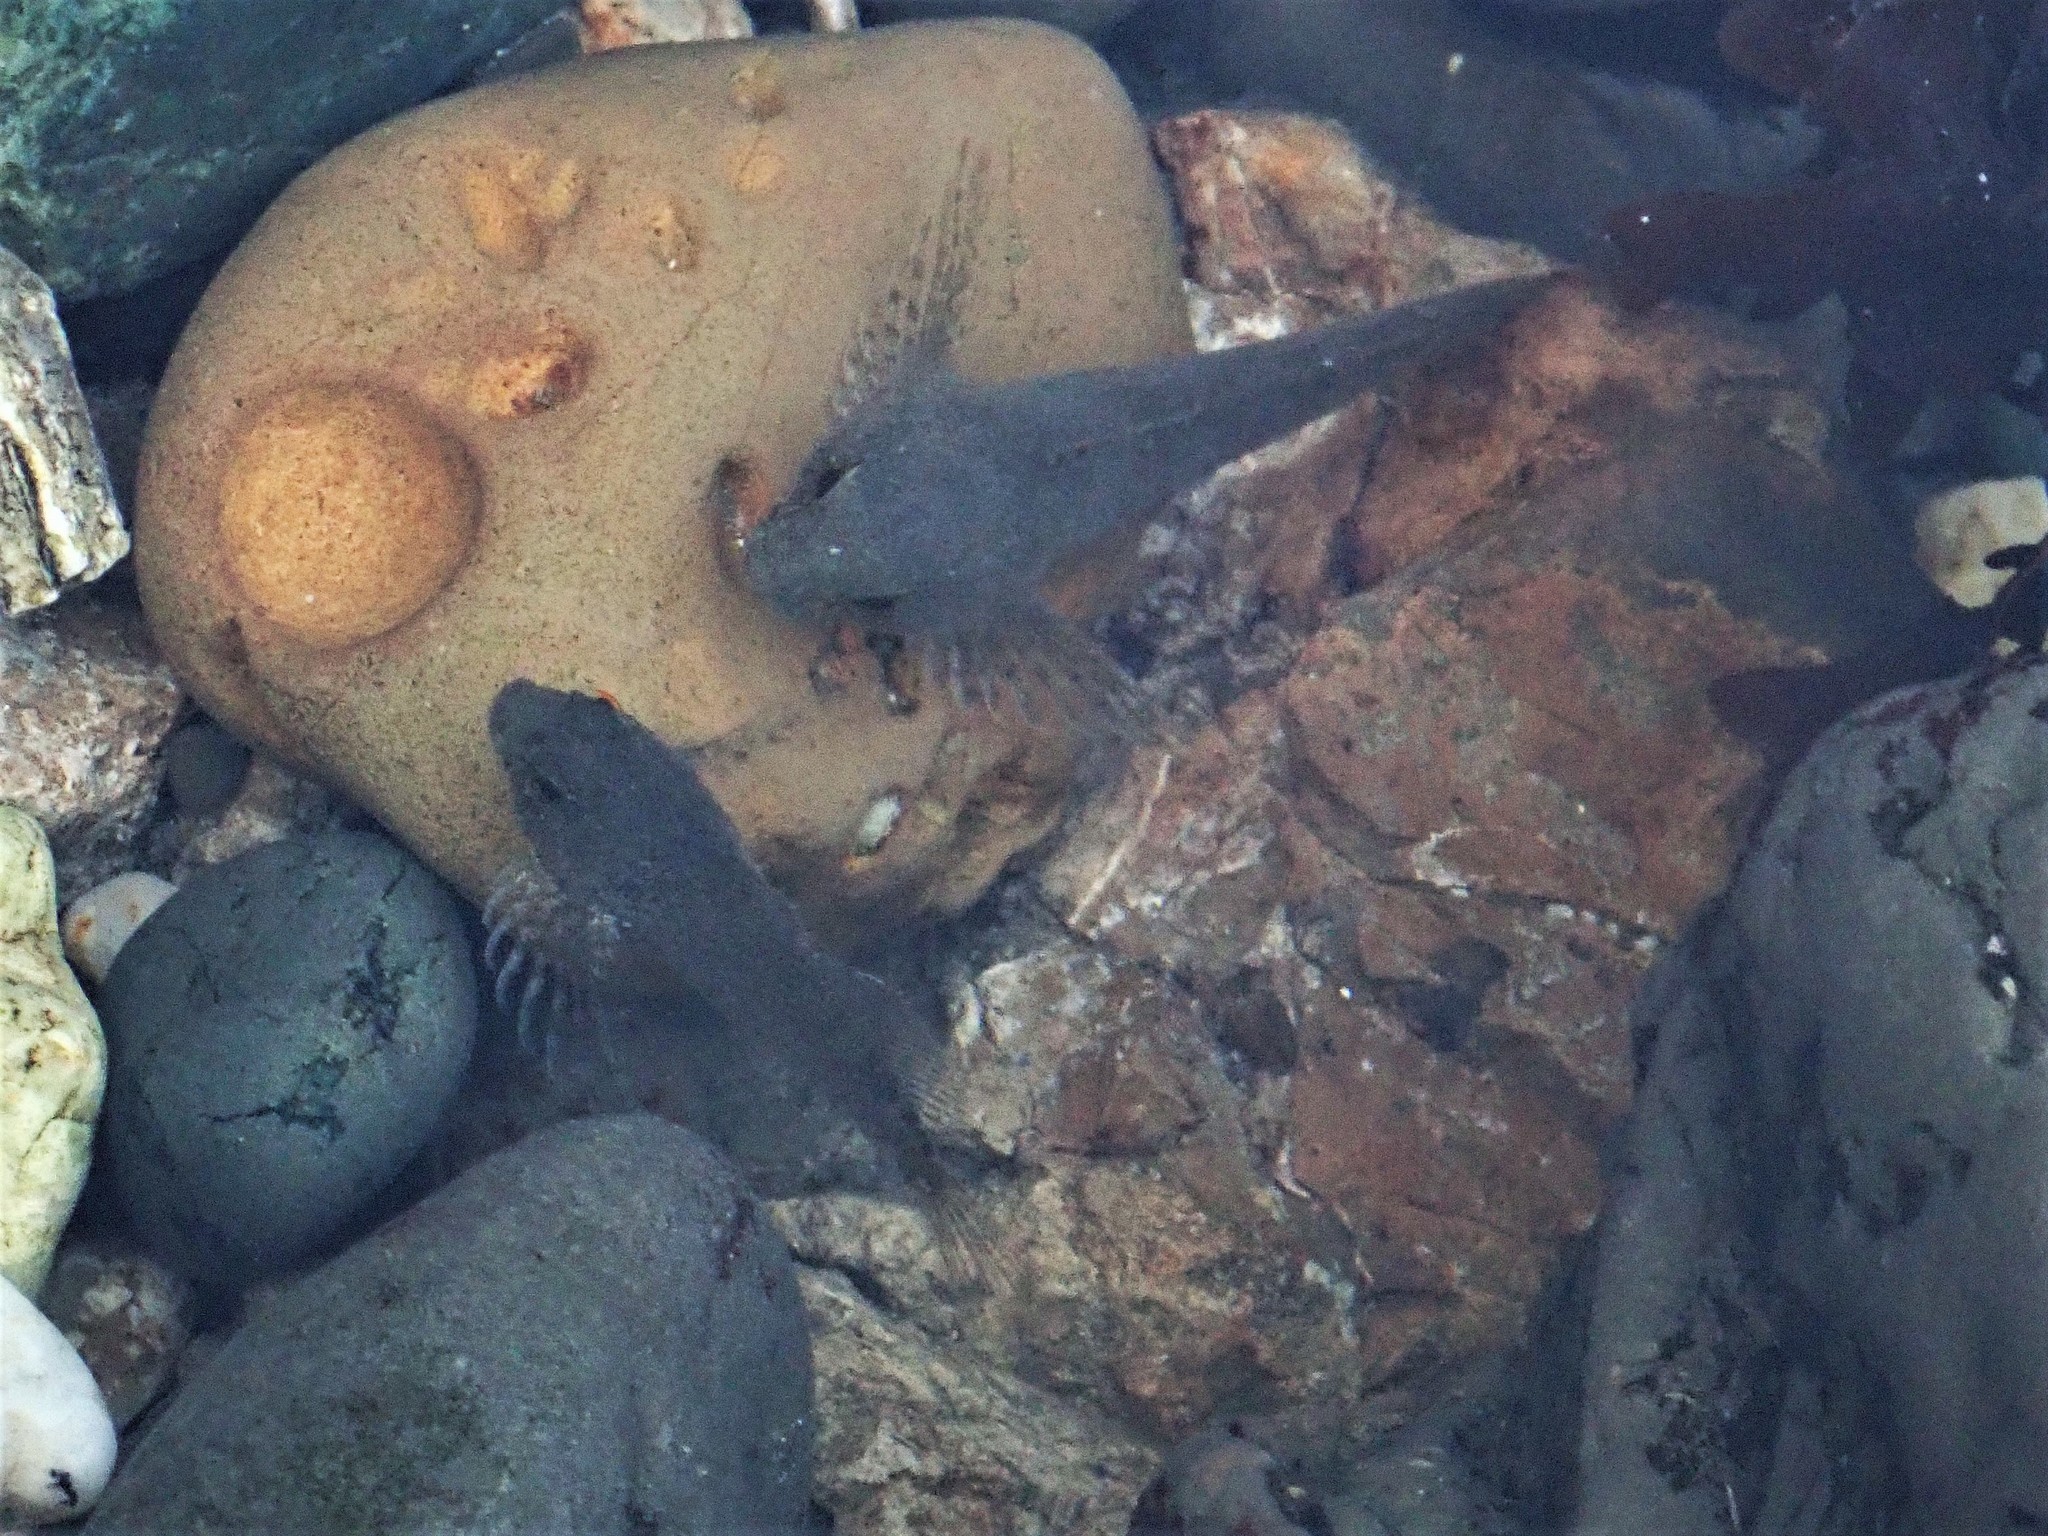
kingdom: Animalia
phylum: Chordata
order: Scorpaeniformes
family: Cottidae
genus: Clinocottus
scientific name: Clinocottus analis
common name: Woolly sculpin
